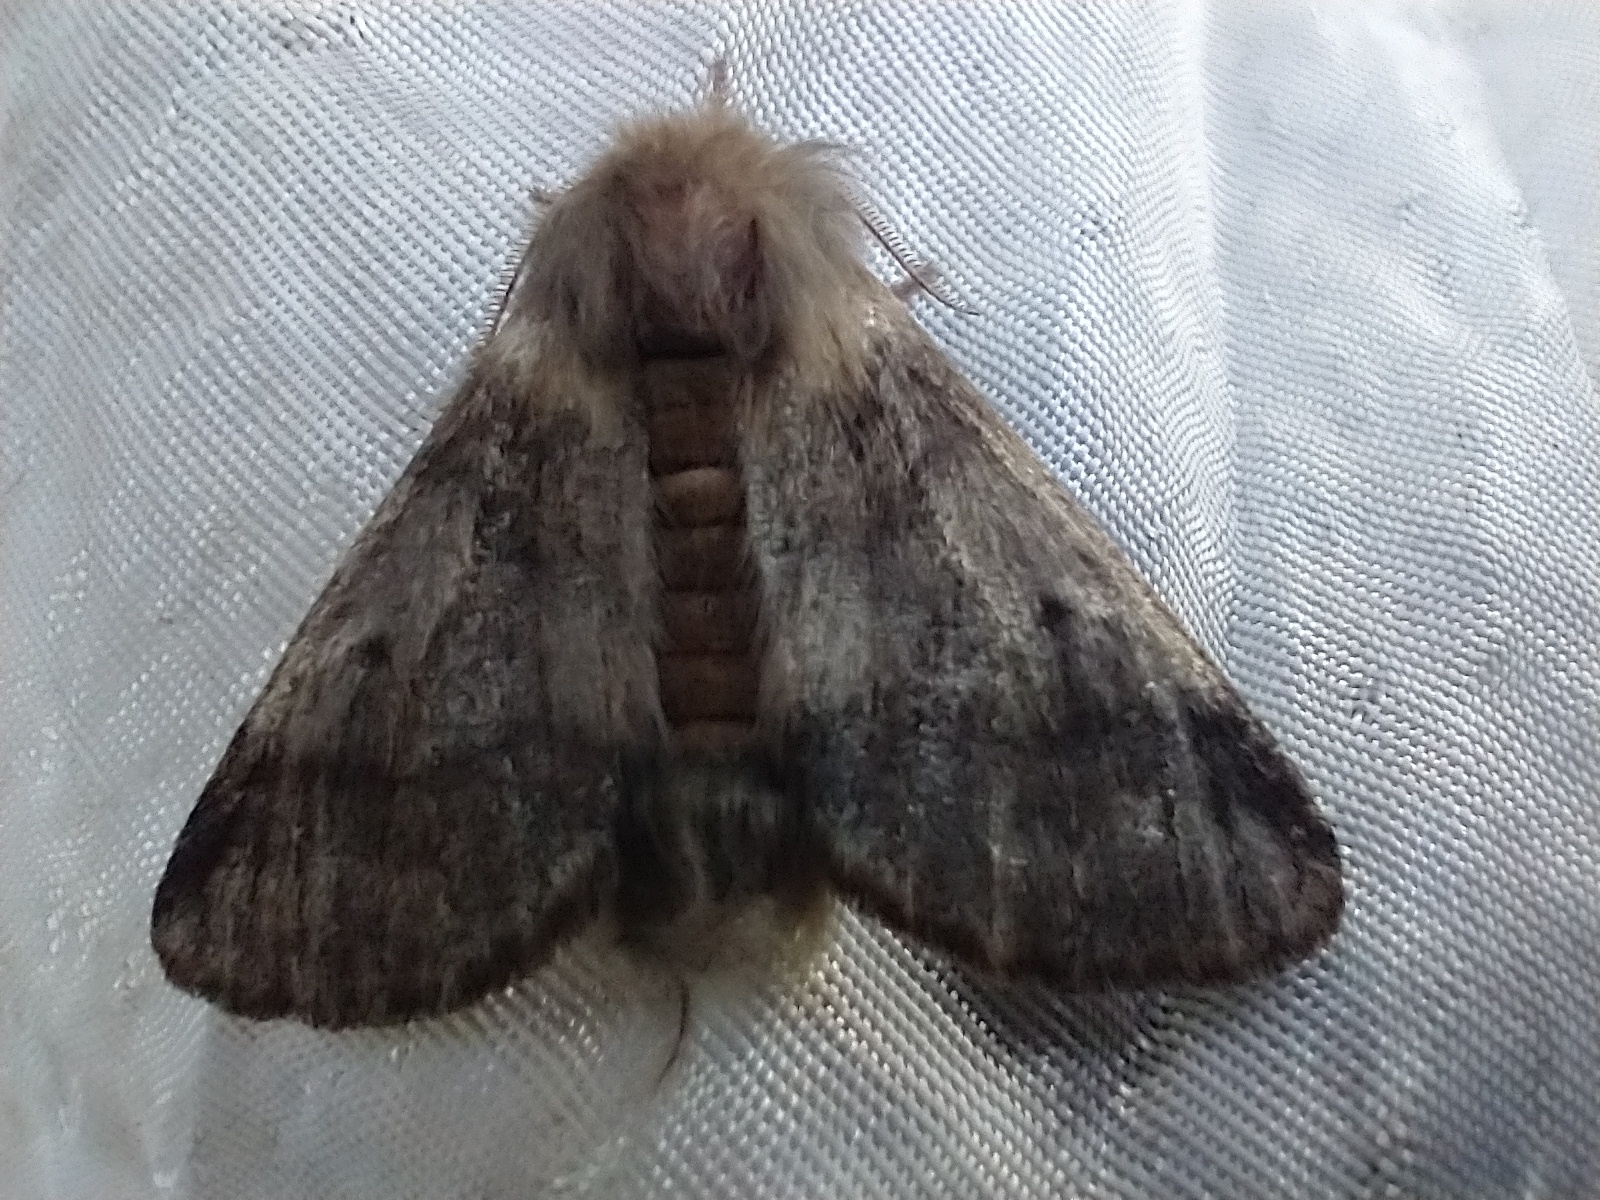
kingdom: Animalia
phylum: Arthropoda
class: Insecta
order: Lepidoptera
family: Notodontidae
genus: Thaumetopoea
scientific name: Thaumetopoea processionea
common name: Oak processionea
